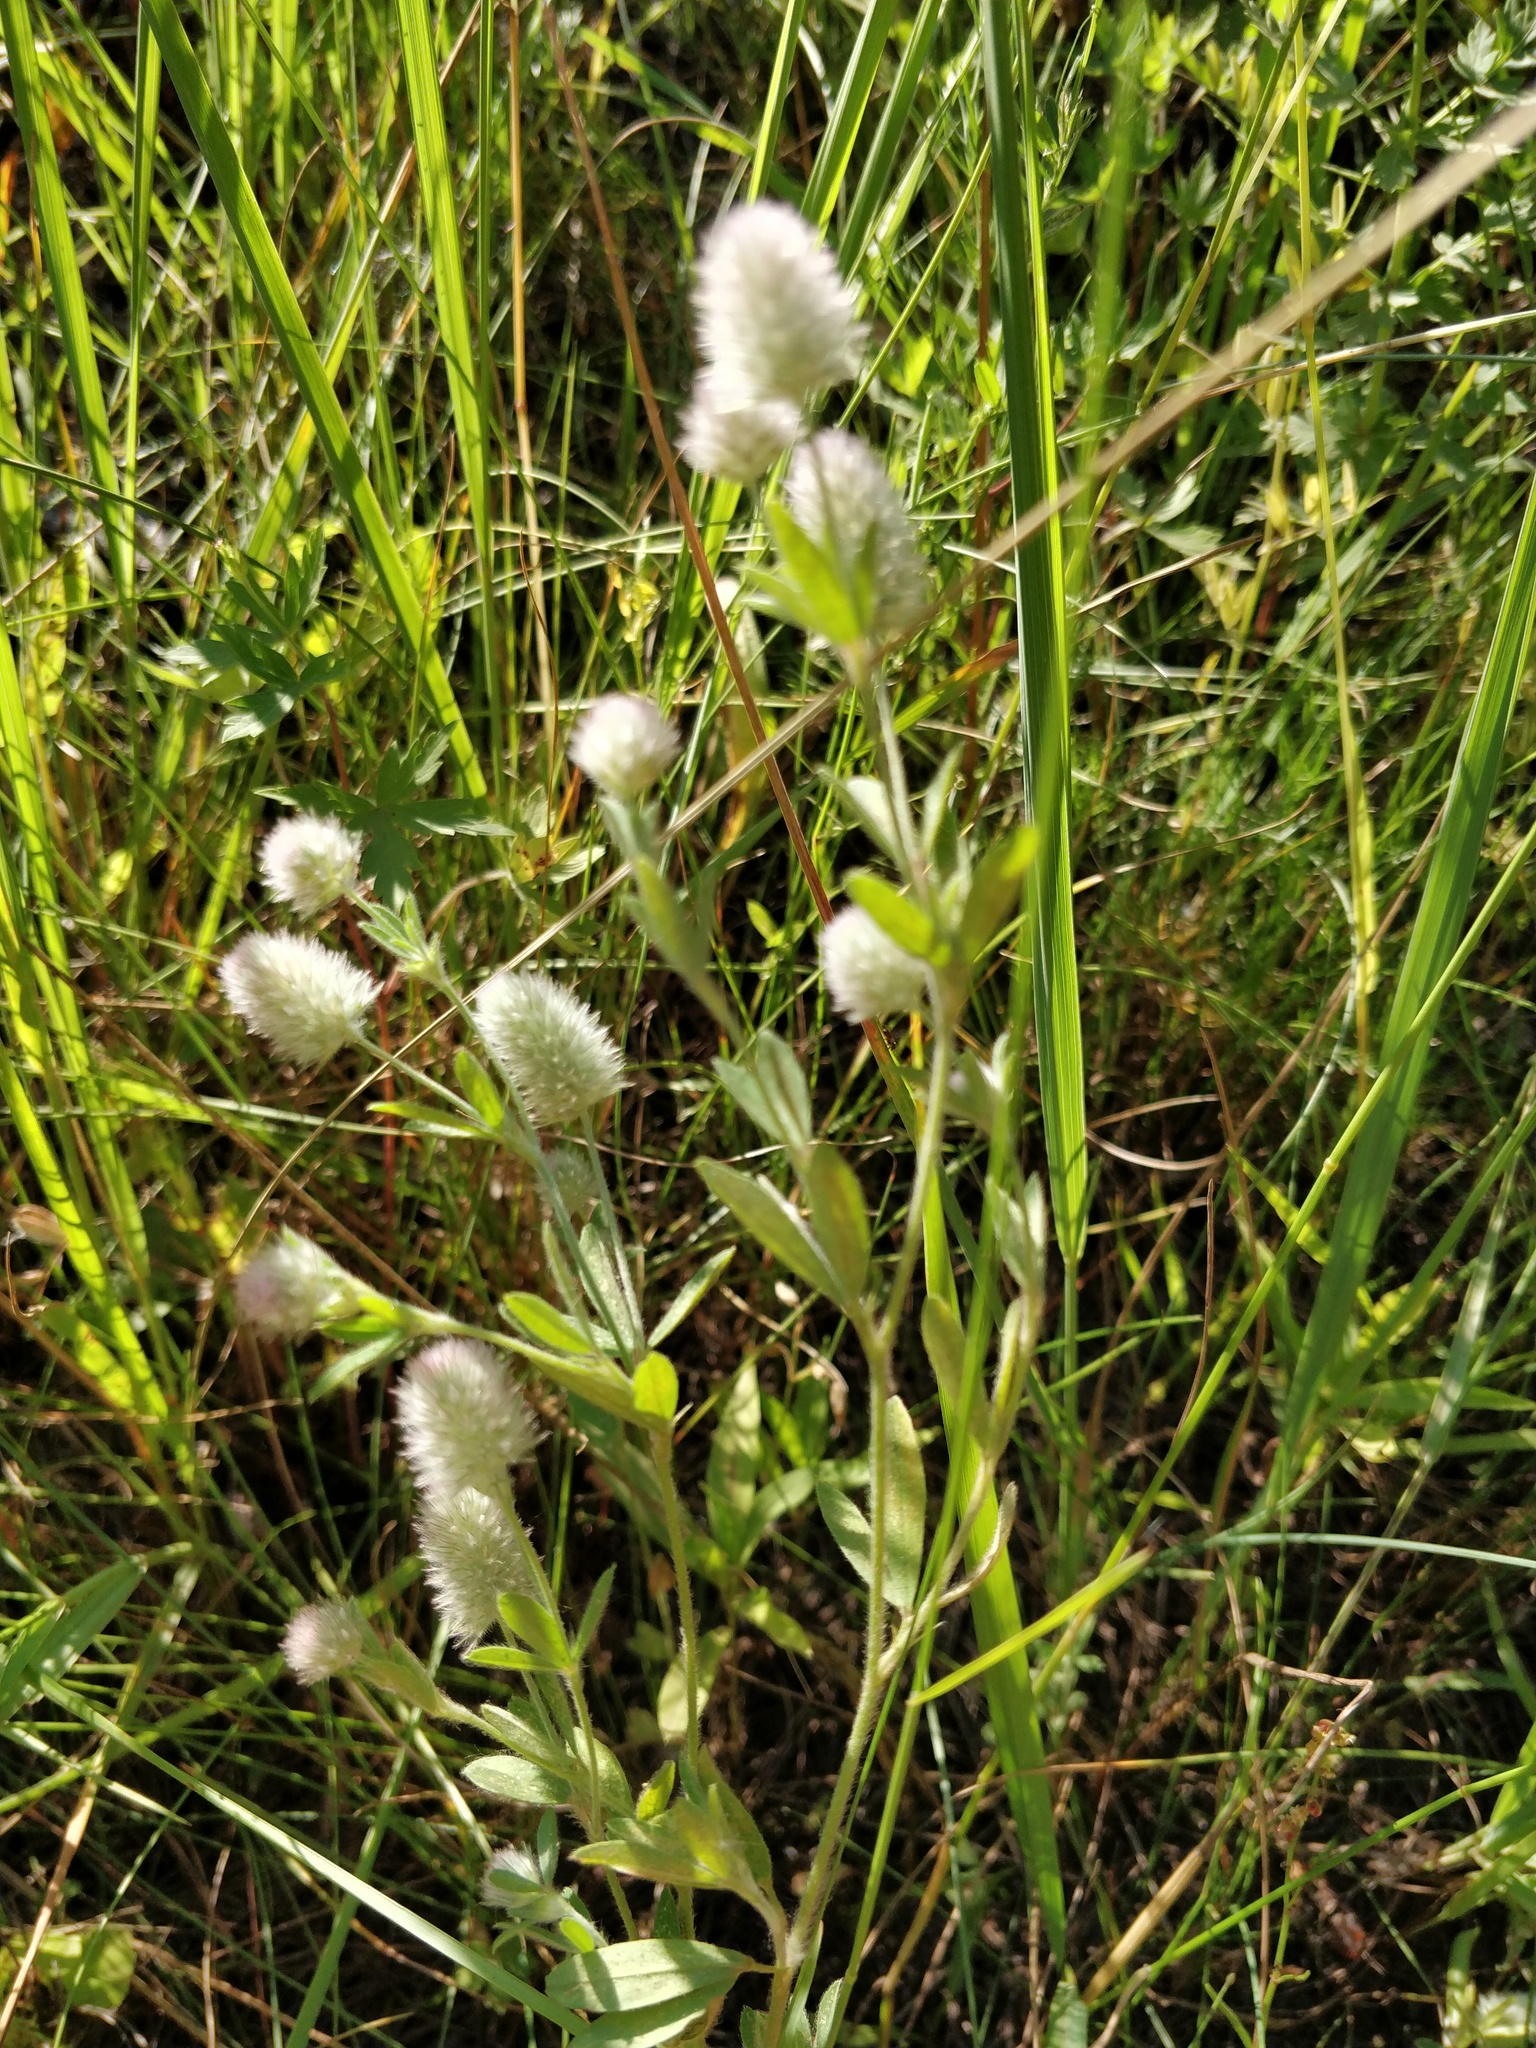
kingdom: Plantae
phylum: Tracheophyta
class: Magnoliopsida
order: Fabales
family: Fabaceae
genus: Trifolium
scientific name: Trifolium arvense
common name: Hare's-foot clover
